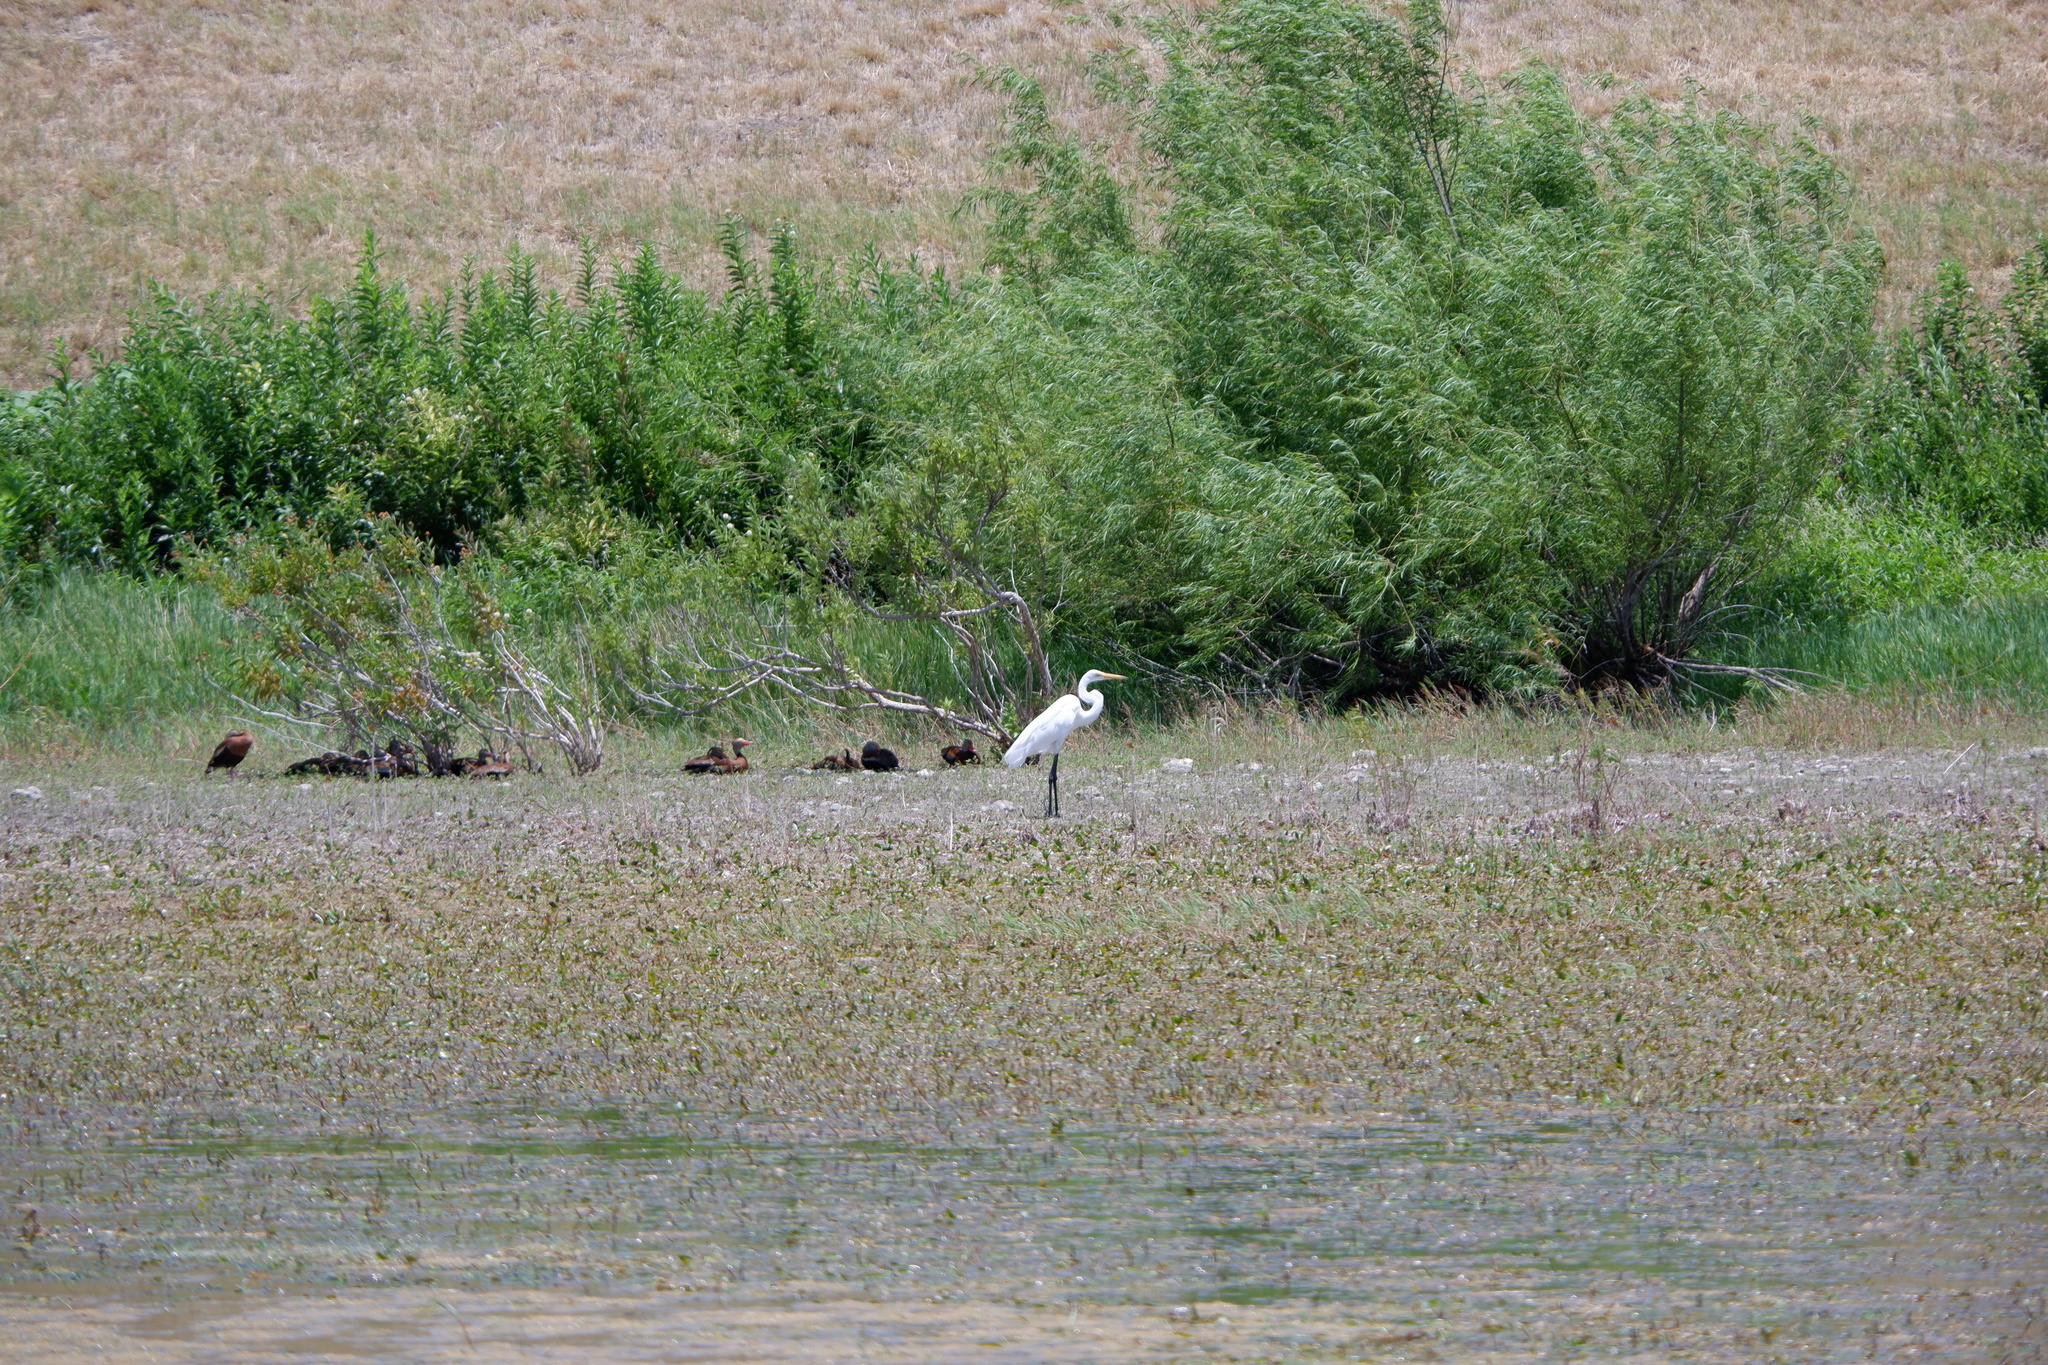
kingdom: Animalia
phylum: Chordata
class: Aves
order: Pelecaniformes
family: Ardeidae
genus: Ardea
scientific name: Ardea alba
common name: Great egret
